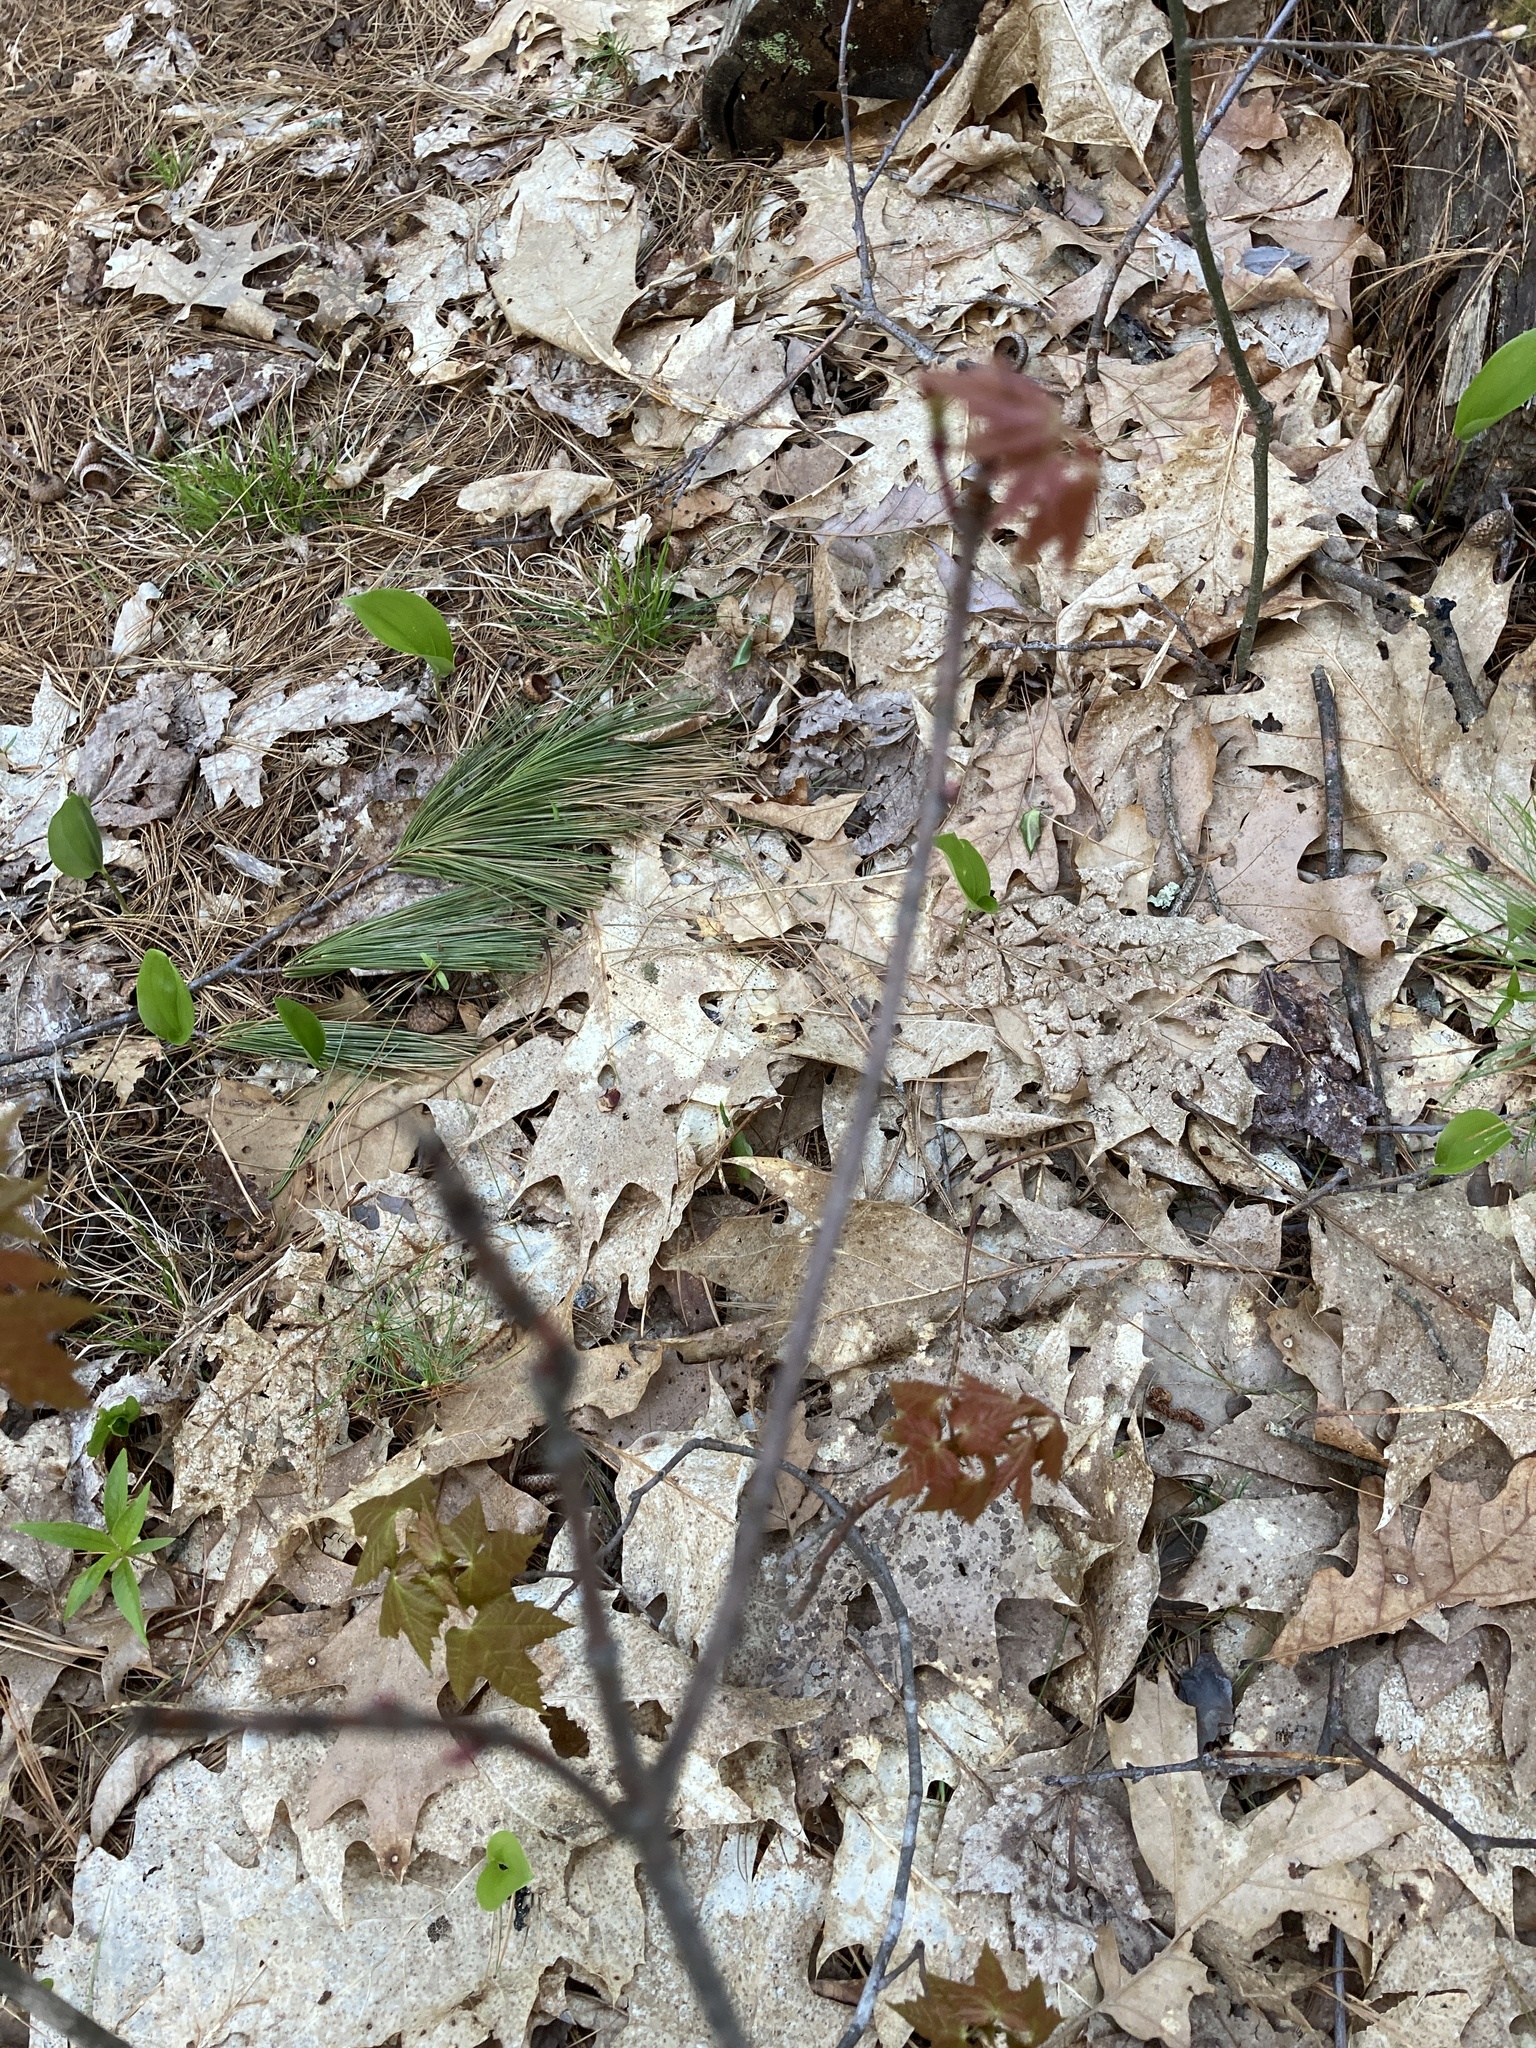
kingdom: Plantae
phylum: Tracheophyta
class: Magnoliopsida
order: Sapindales
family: Sapindaceae
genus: Acer
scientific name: Acer rubrum
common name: Red maple
